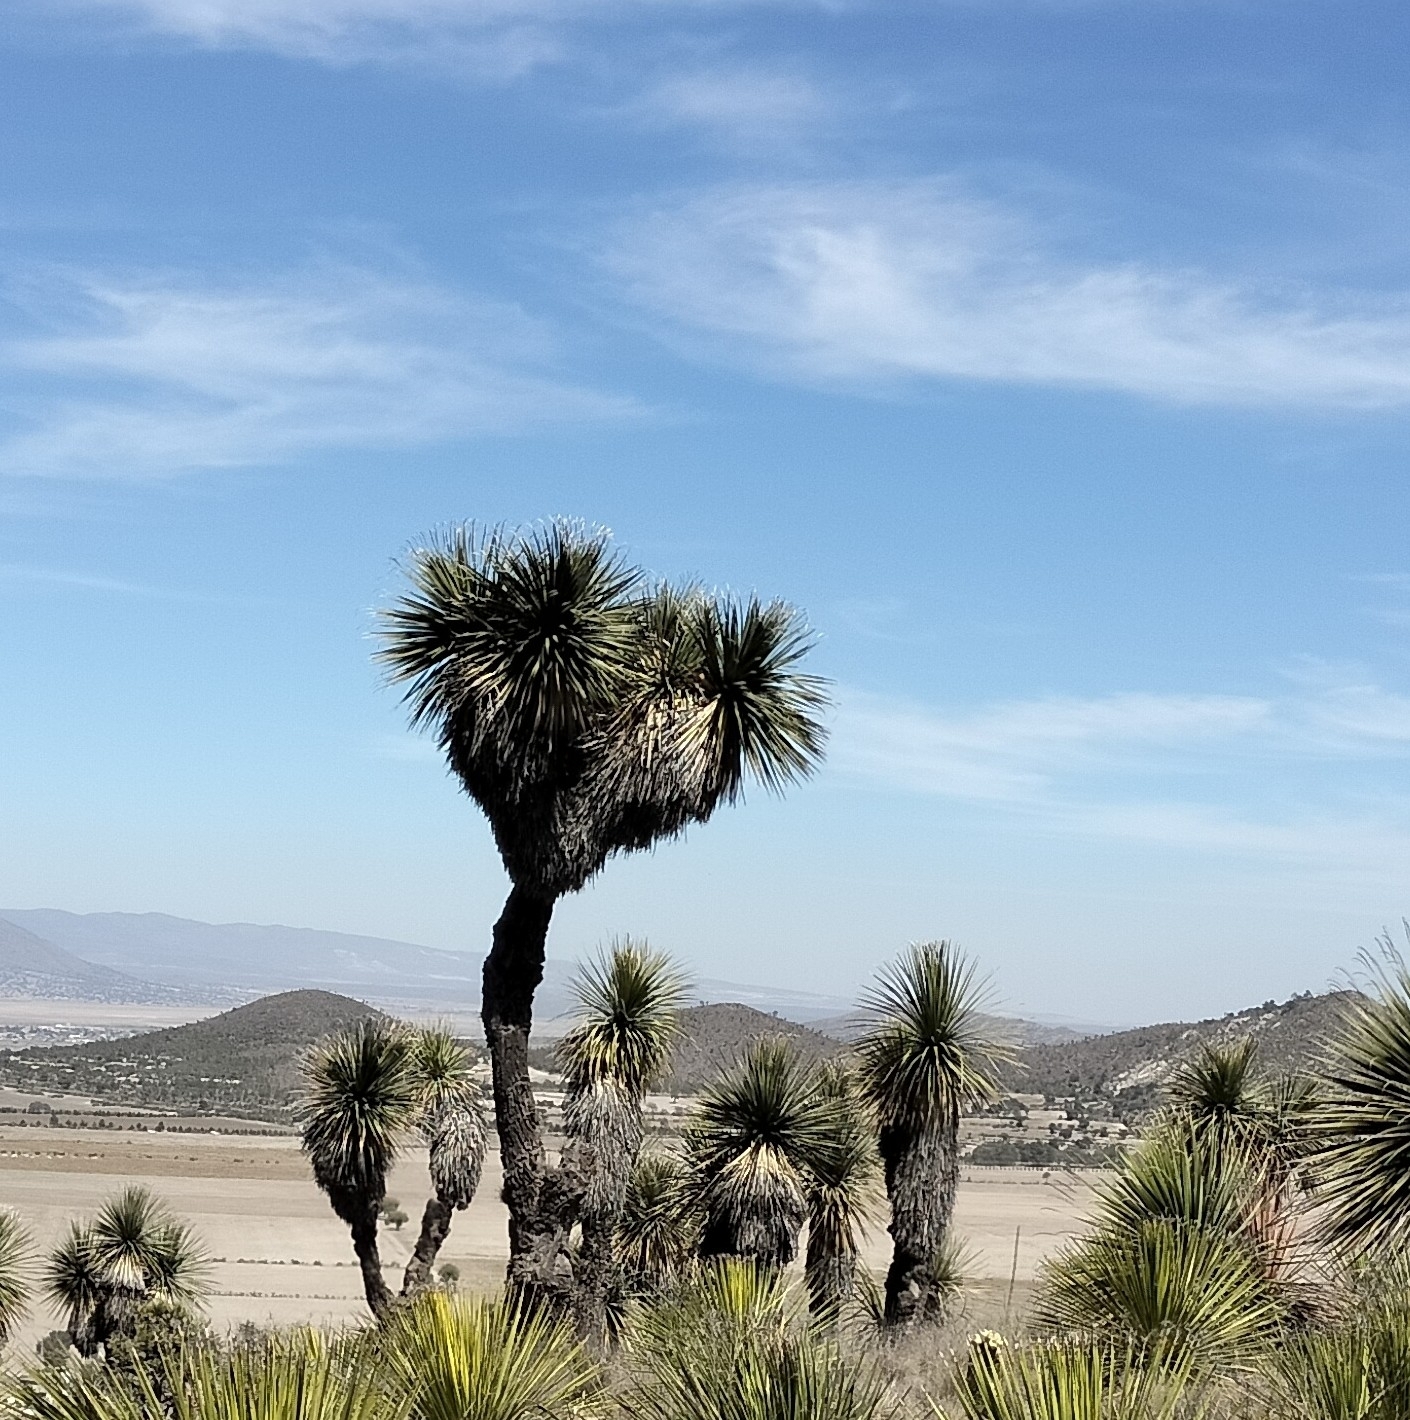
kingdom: Plantae
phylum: Tracheophyta
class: Liliopsida
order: Asparagales
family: Asparagaceae
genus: Nolina
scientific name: Nolina parviflora
